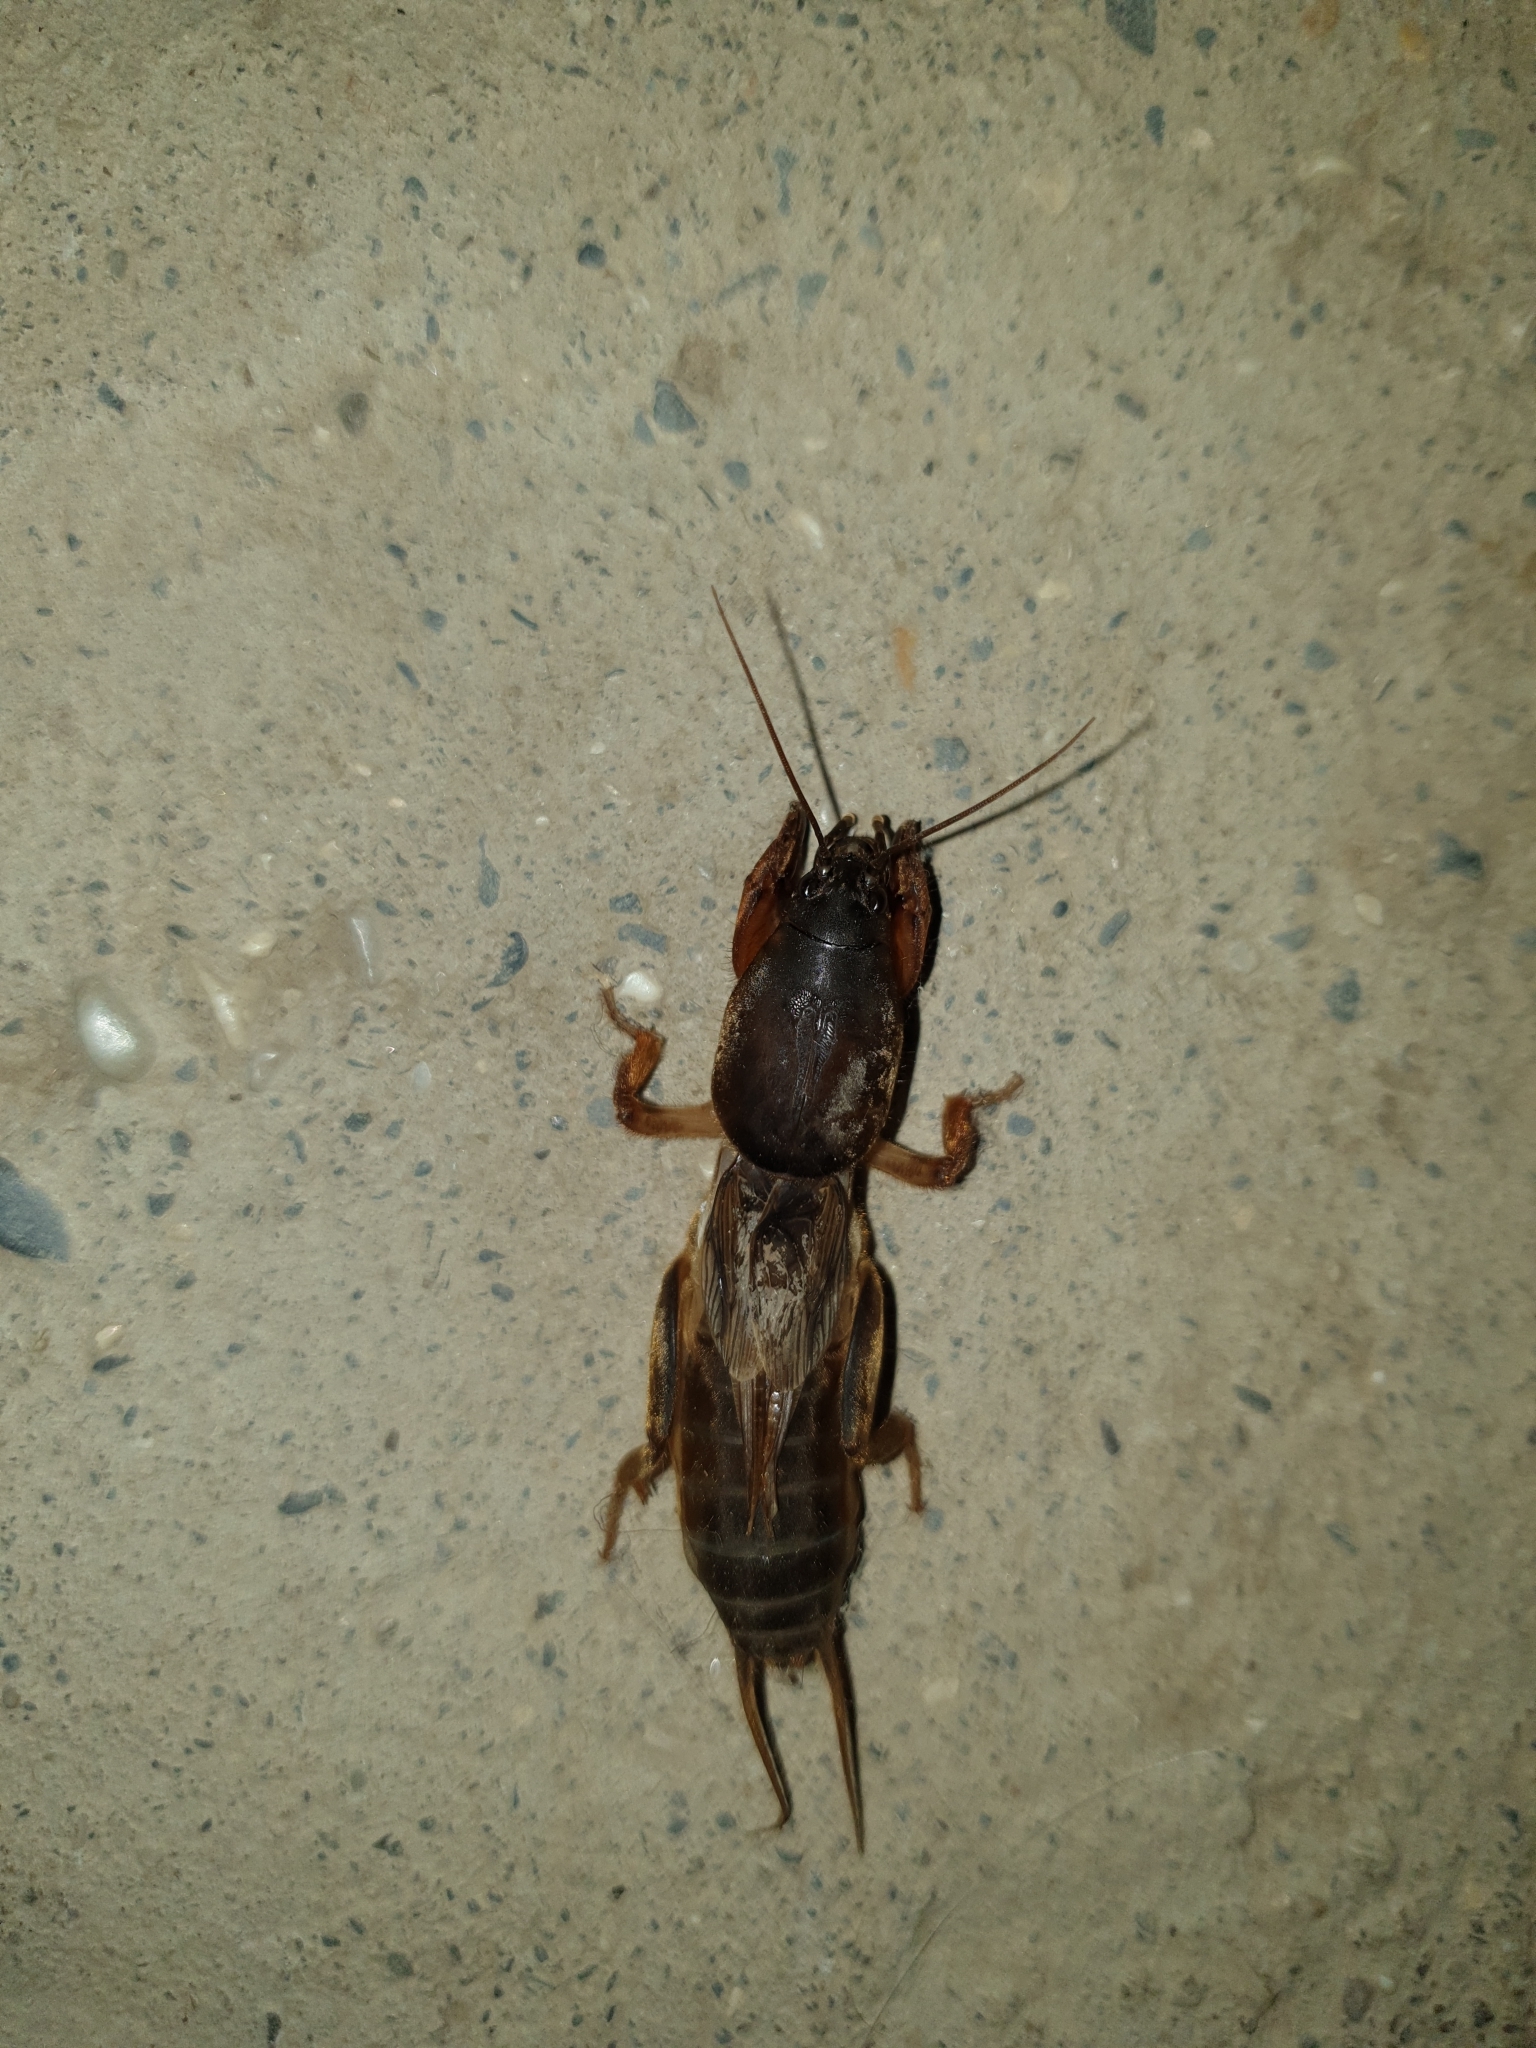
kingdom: Animalia
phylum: Arthropoda
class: Insecta
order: Orthoptera
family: Gryllotalpidae
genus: Gryllotalpa
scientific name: Gryllotalpa gryllotalpa
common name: European mole cricket
